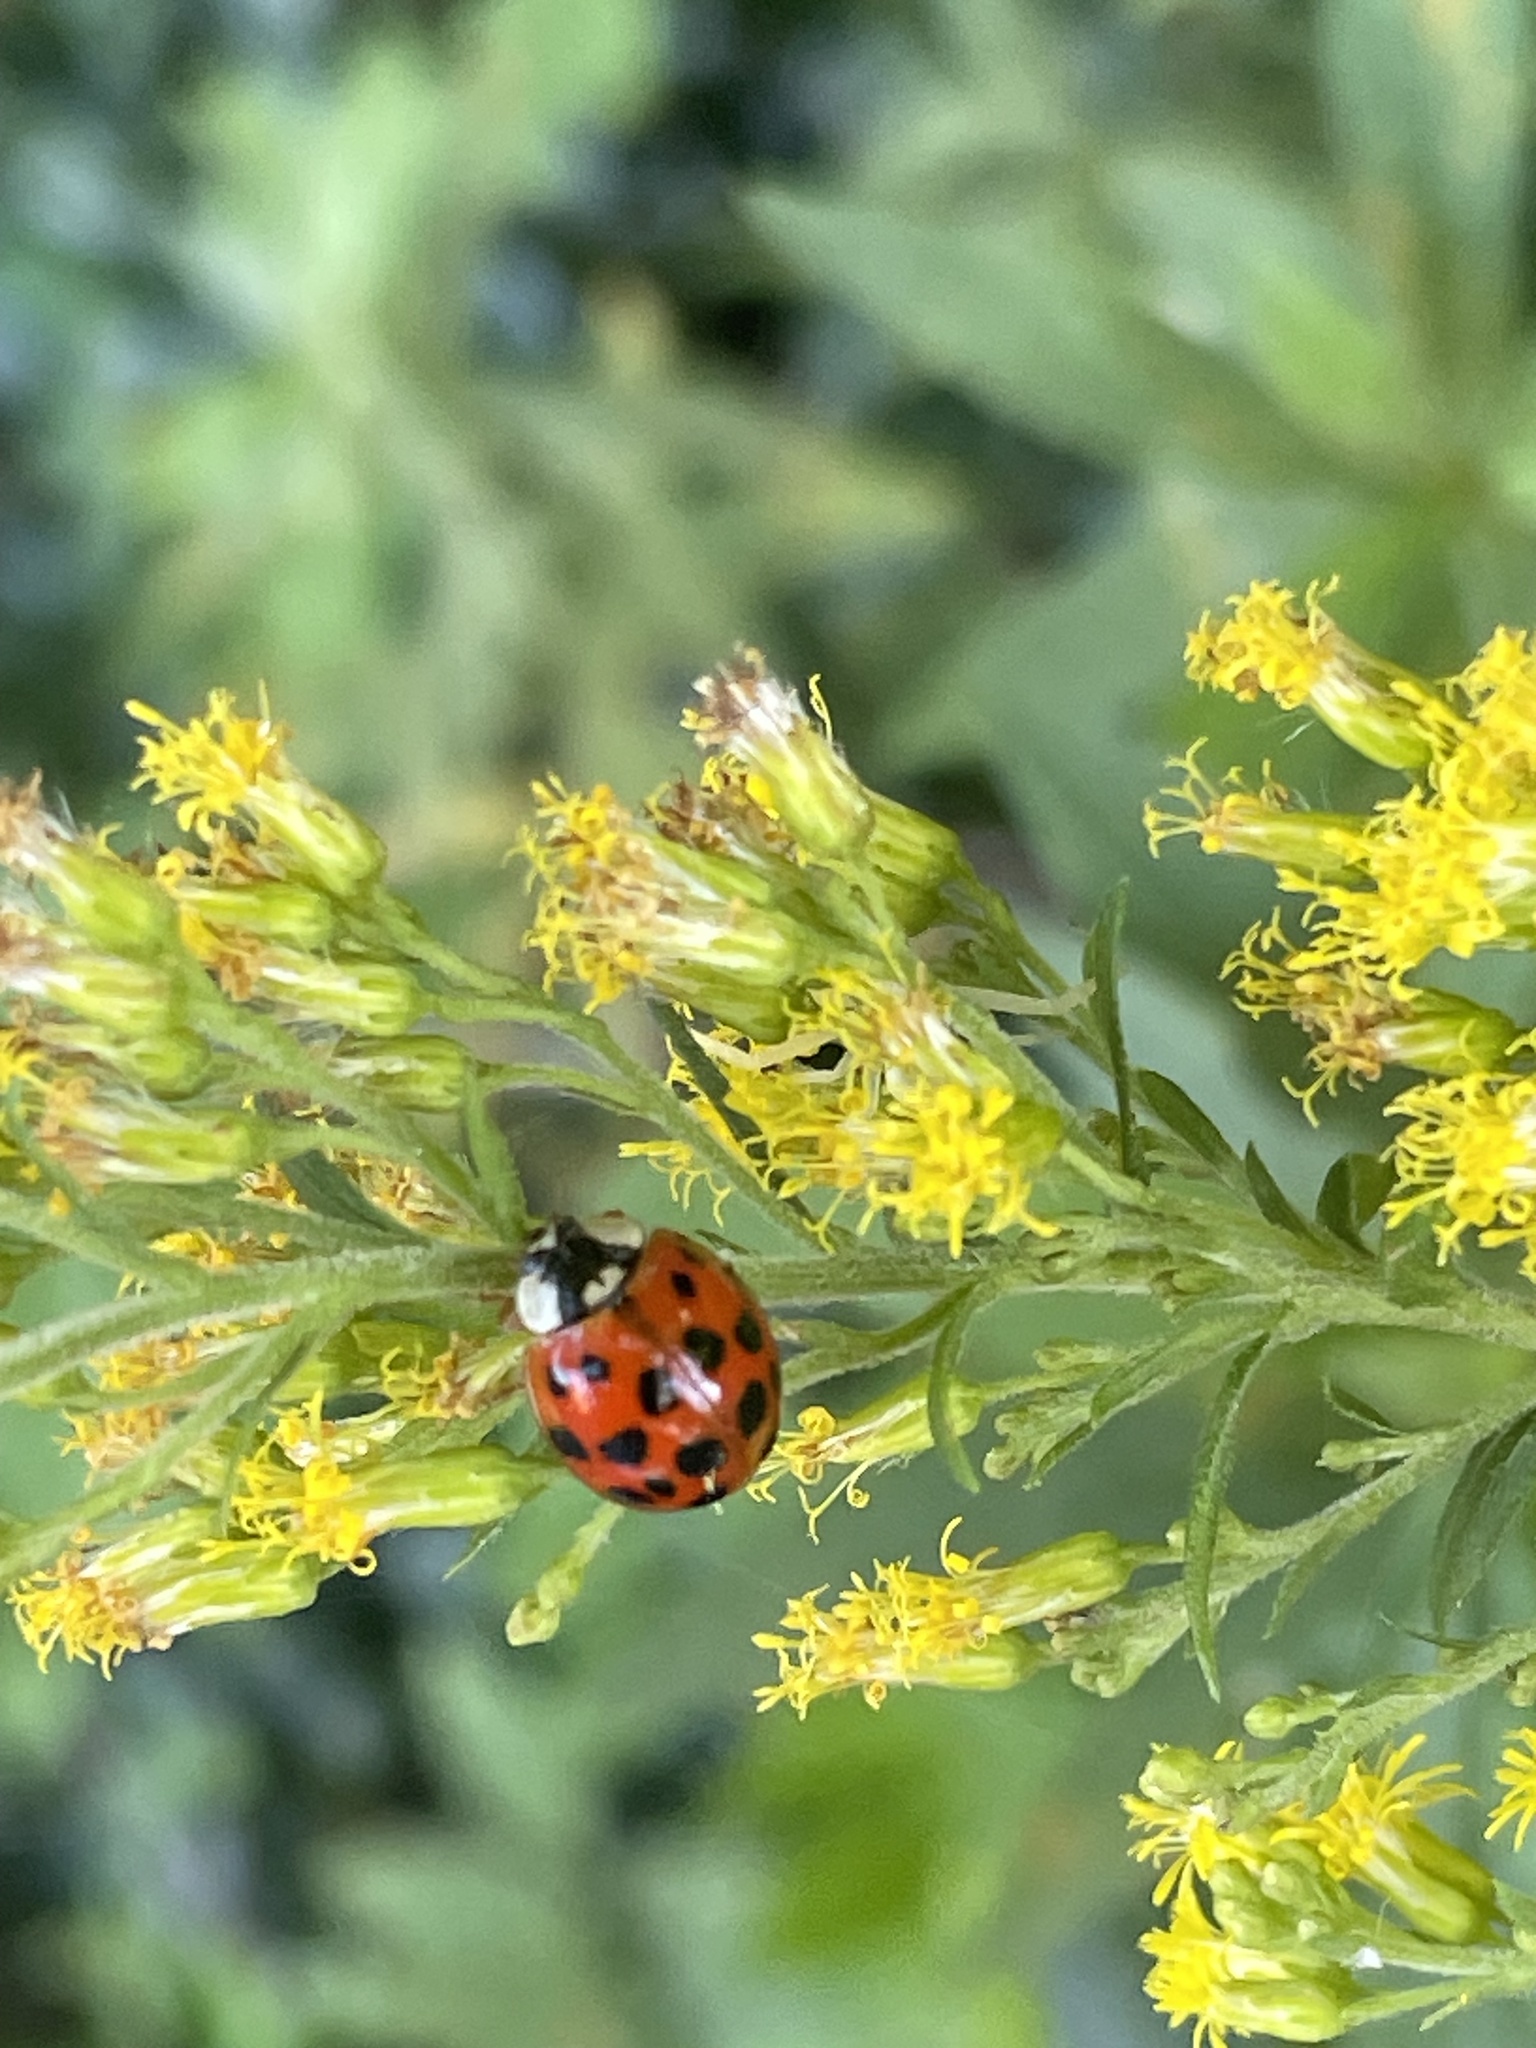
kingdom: Animalia
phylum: Arthropoda
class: Insecta
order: Coleoptera
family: Coccinellidae
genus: Harmonia
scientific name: Harmonia axyridis
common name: Harlequin ladybird
